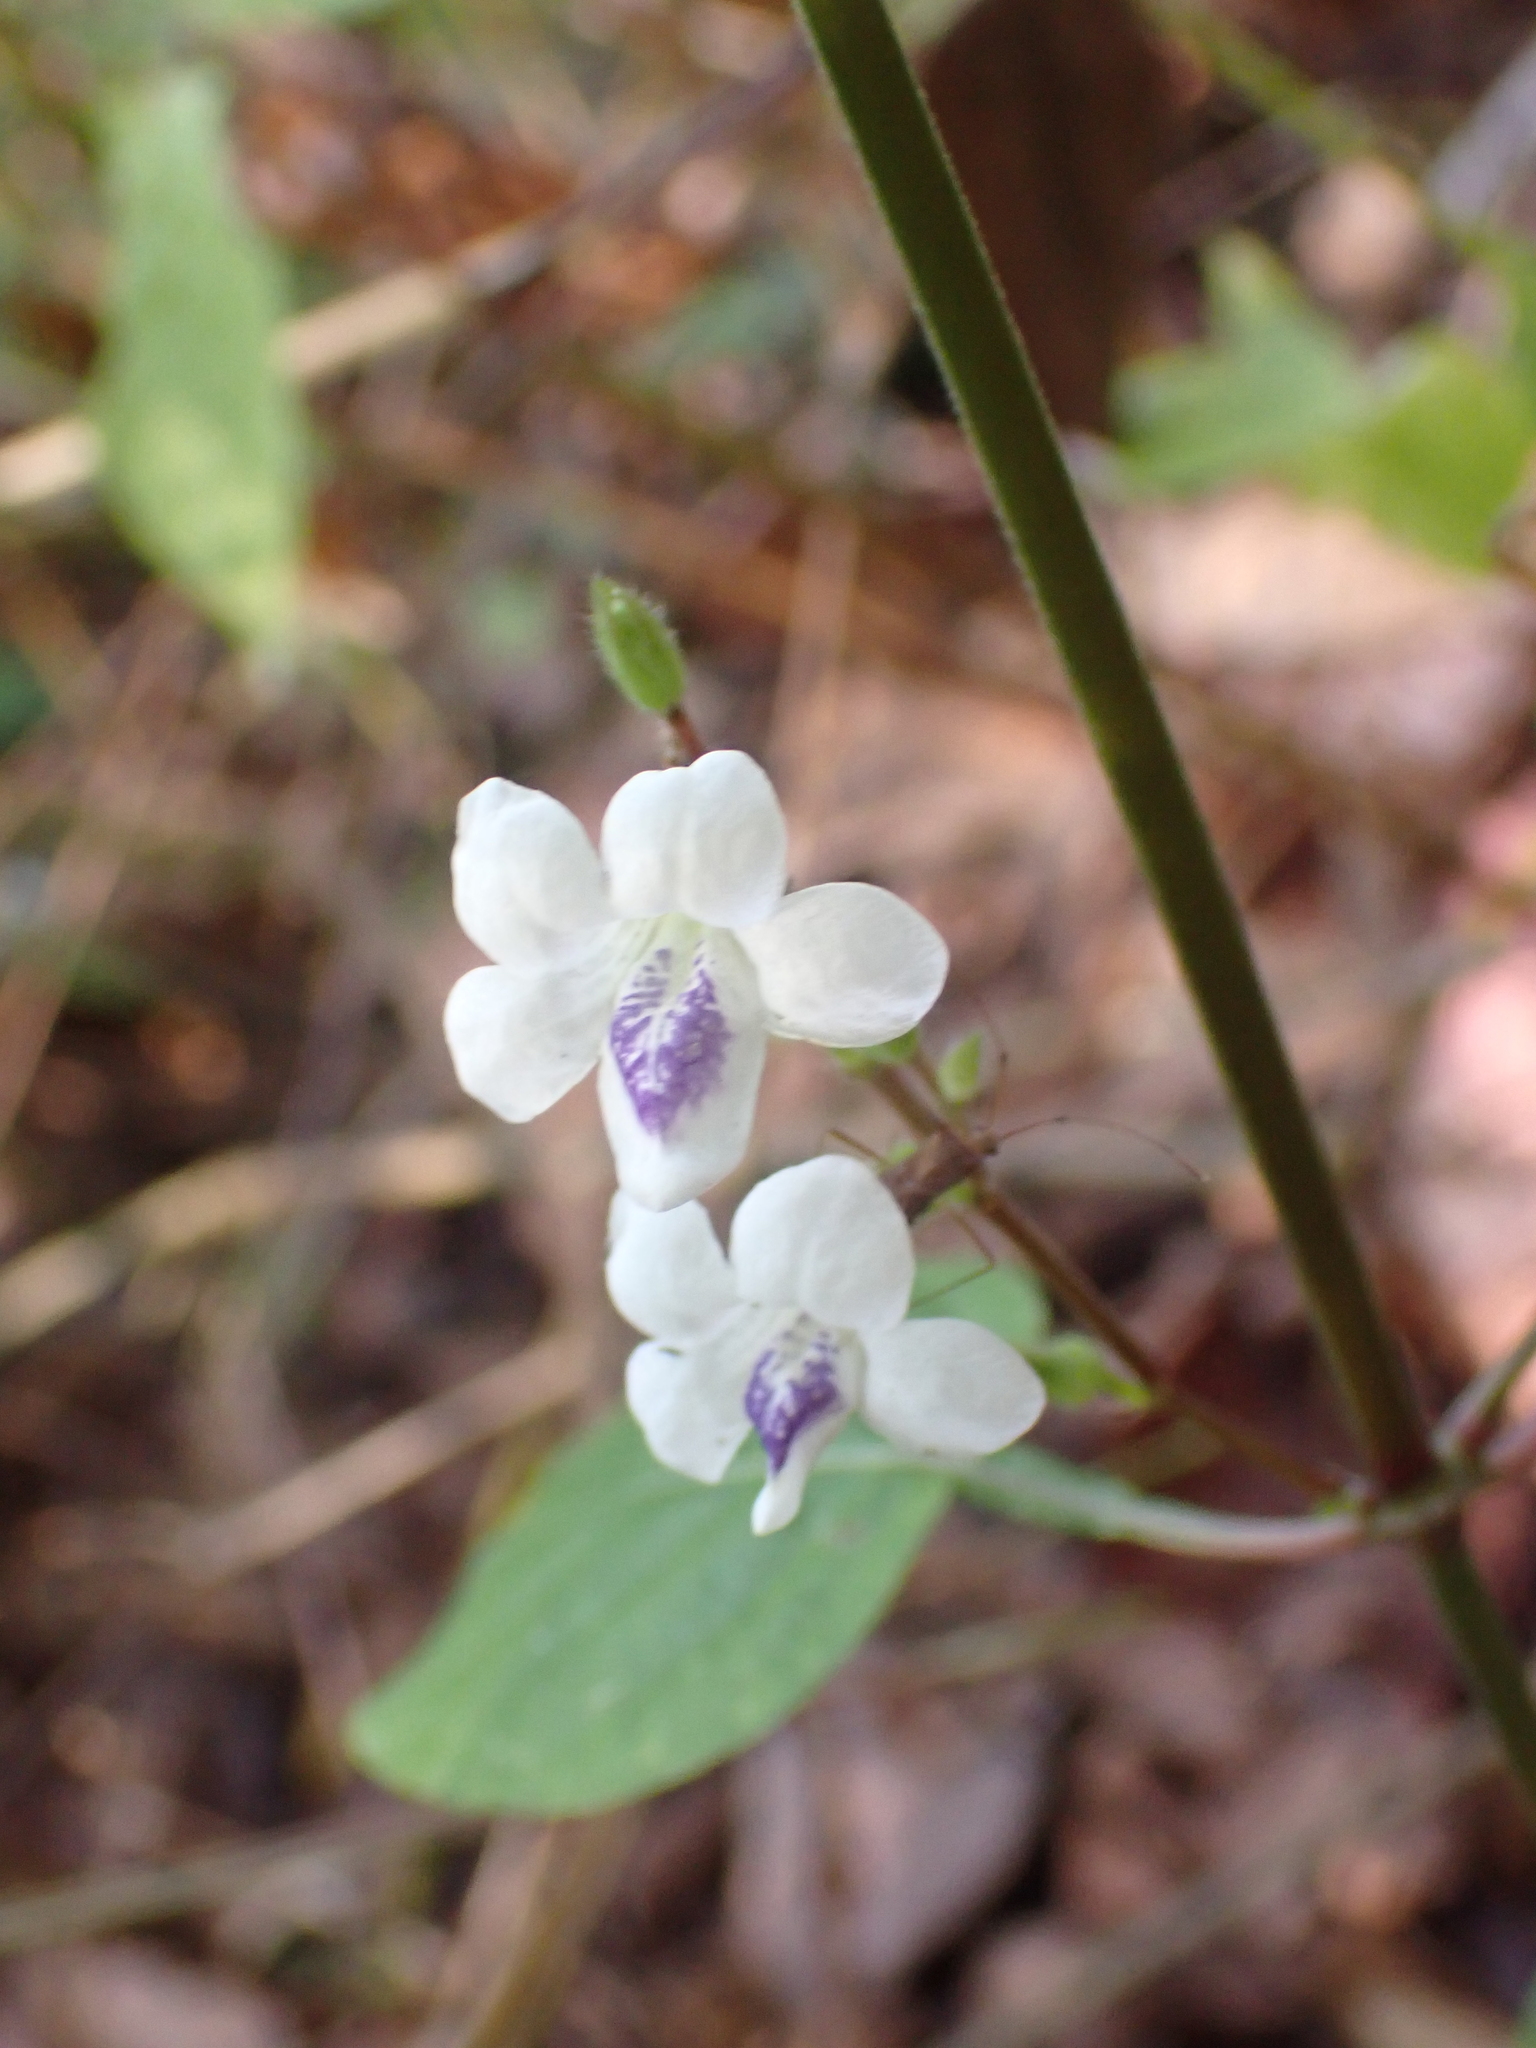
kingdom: Plantae
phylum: Tracheophyta
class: Magnoliopsida
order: Lamiales
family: Acanthaceae
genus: Asystasia
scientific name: Asystasia intrusa
